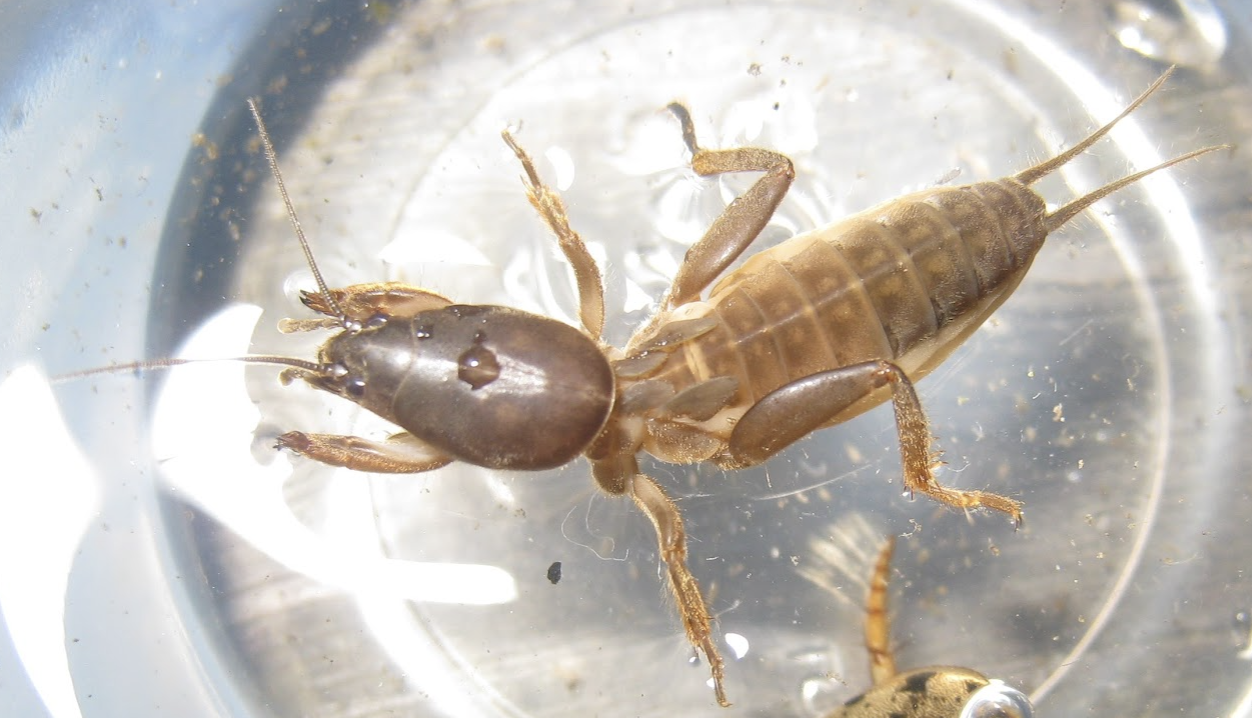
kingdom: Animalia
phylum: Arthropoda
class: Insecta
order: Orthoptera
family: Gryllotalpidae
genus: Gryllotalpa
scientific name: Gryllotalpa orientalis
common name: Grasshopper
